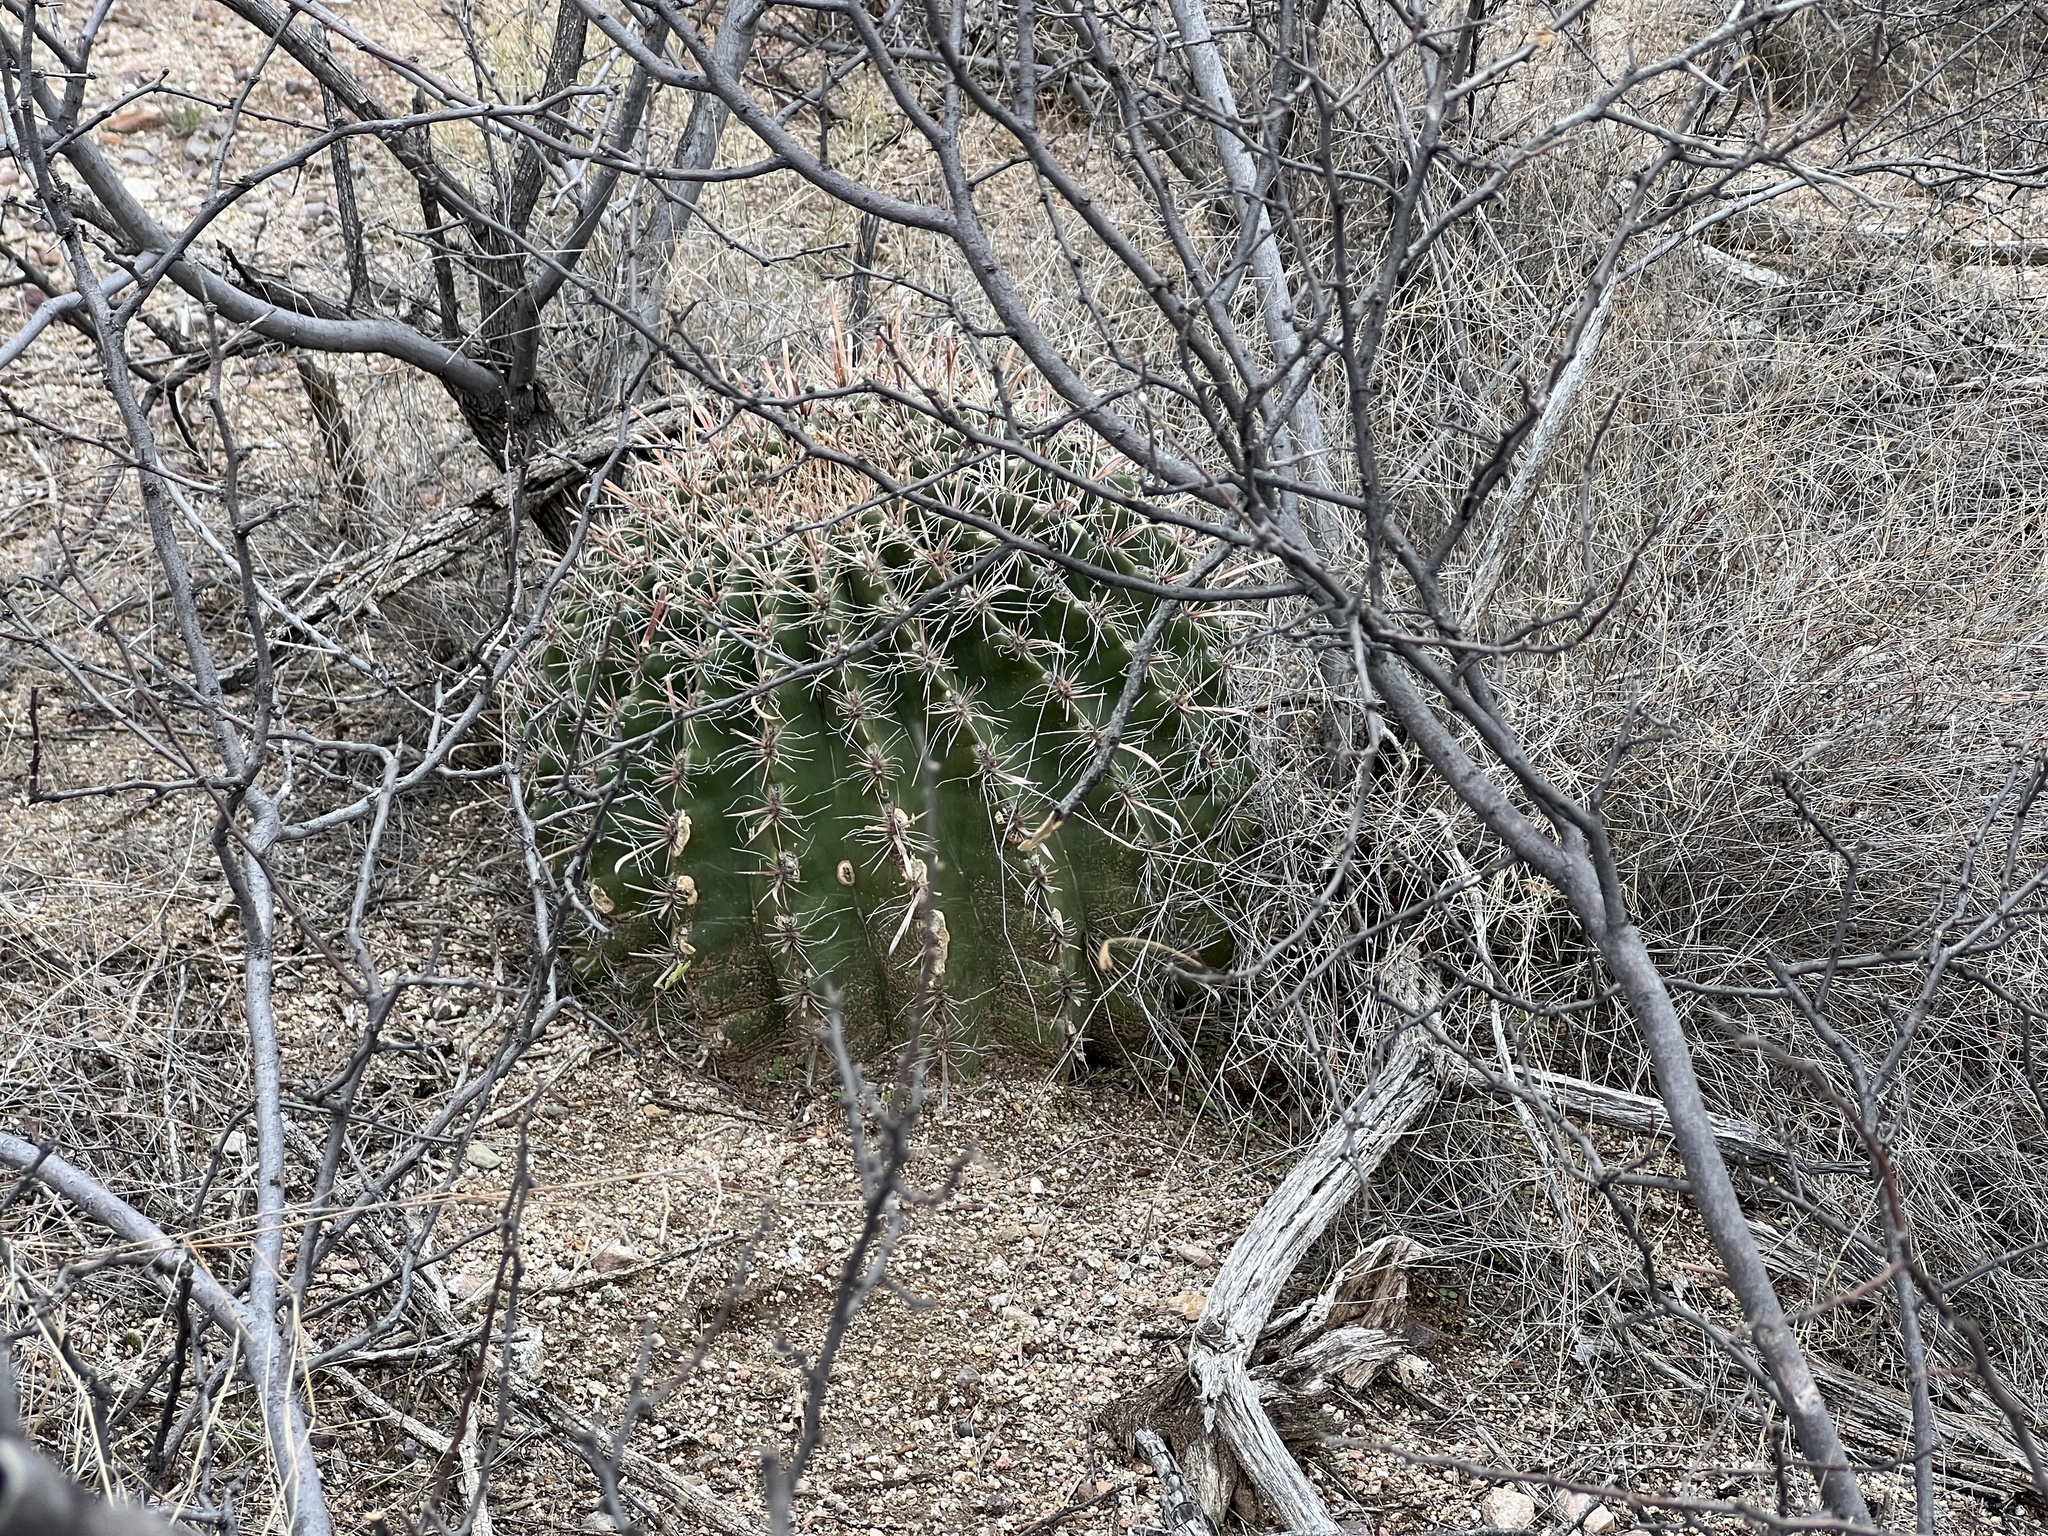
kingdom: Plantae
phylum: Tracheophyta
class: Magnoliopsida
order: Caryophyllales
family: Cactaceae
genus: Ferocactus
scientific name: Ferocactus wislizeni
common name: Candy barrel cactus
